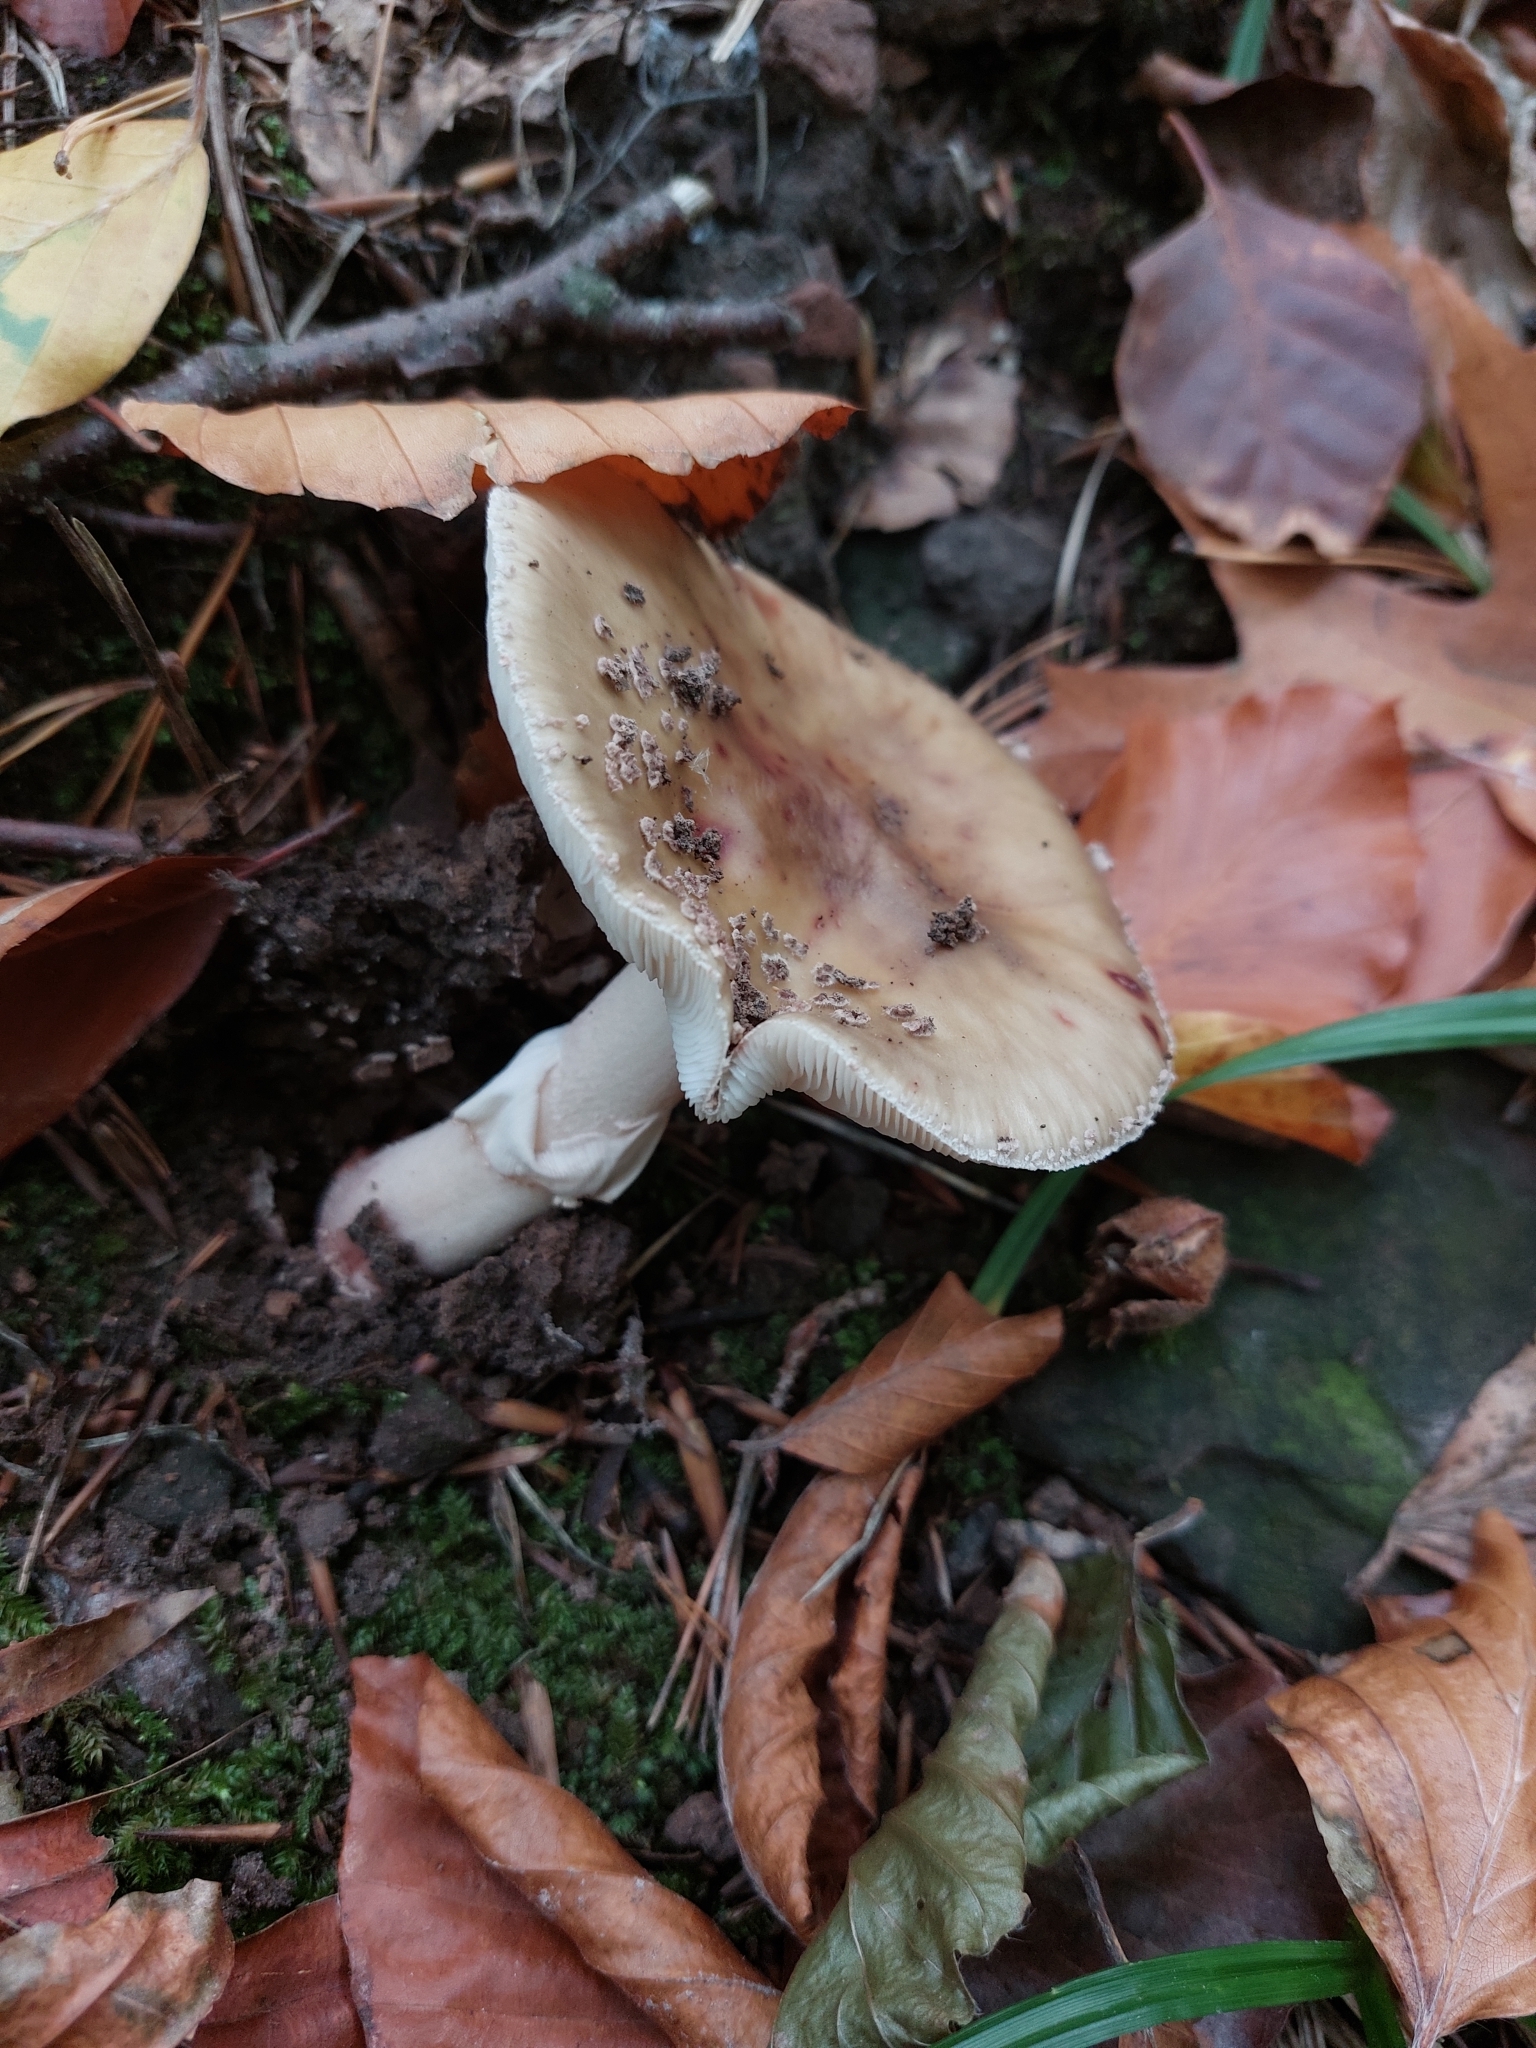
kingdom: Fungi
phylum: Basidiomycota
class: Agaricomycetes
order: Agaricales
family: Amanitaceae
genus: Amanita
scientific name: Amanita rubescens
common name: Blusher
